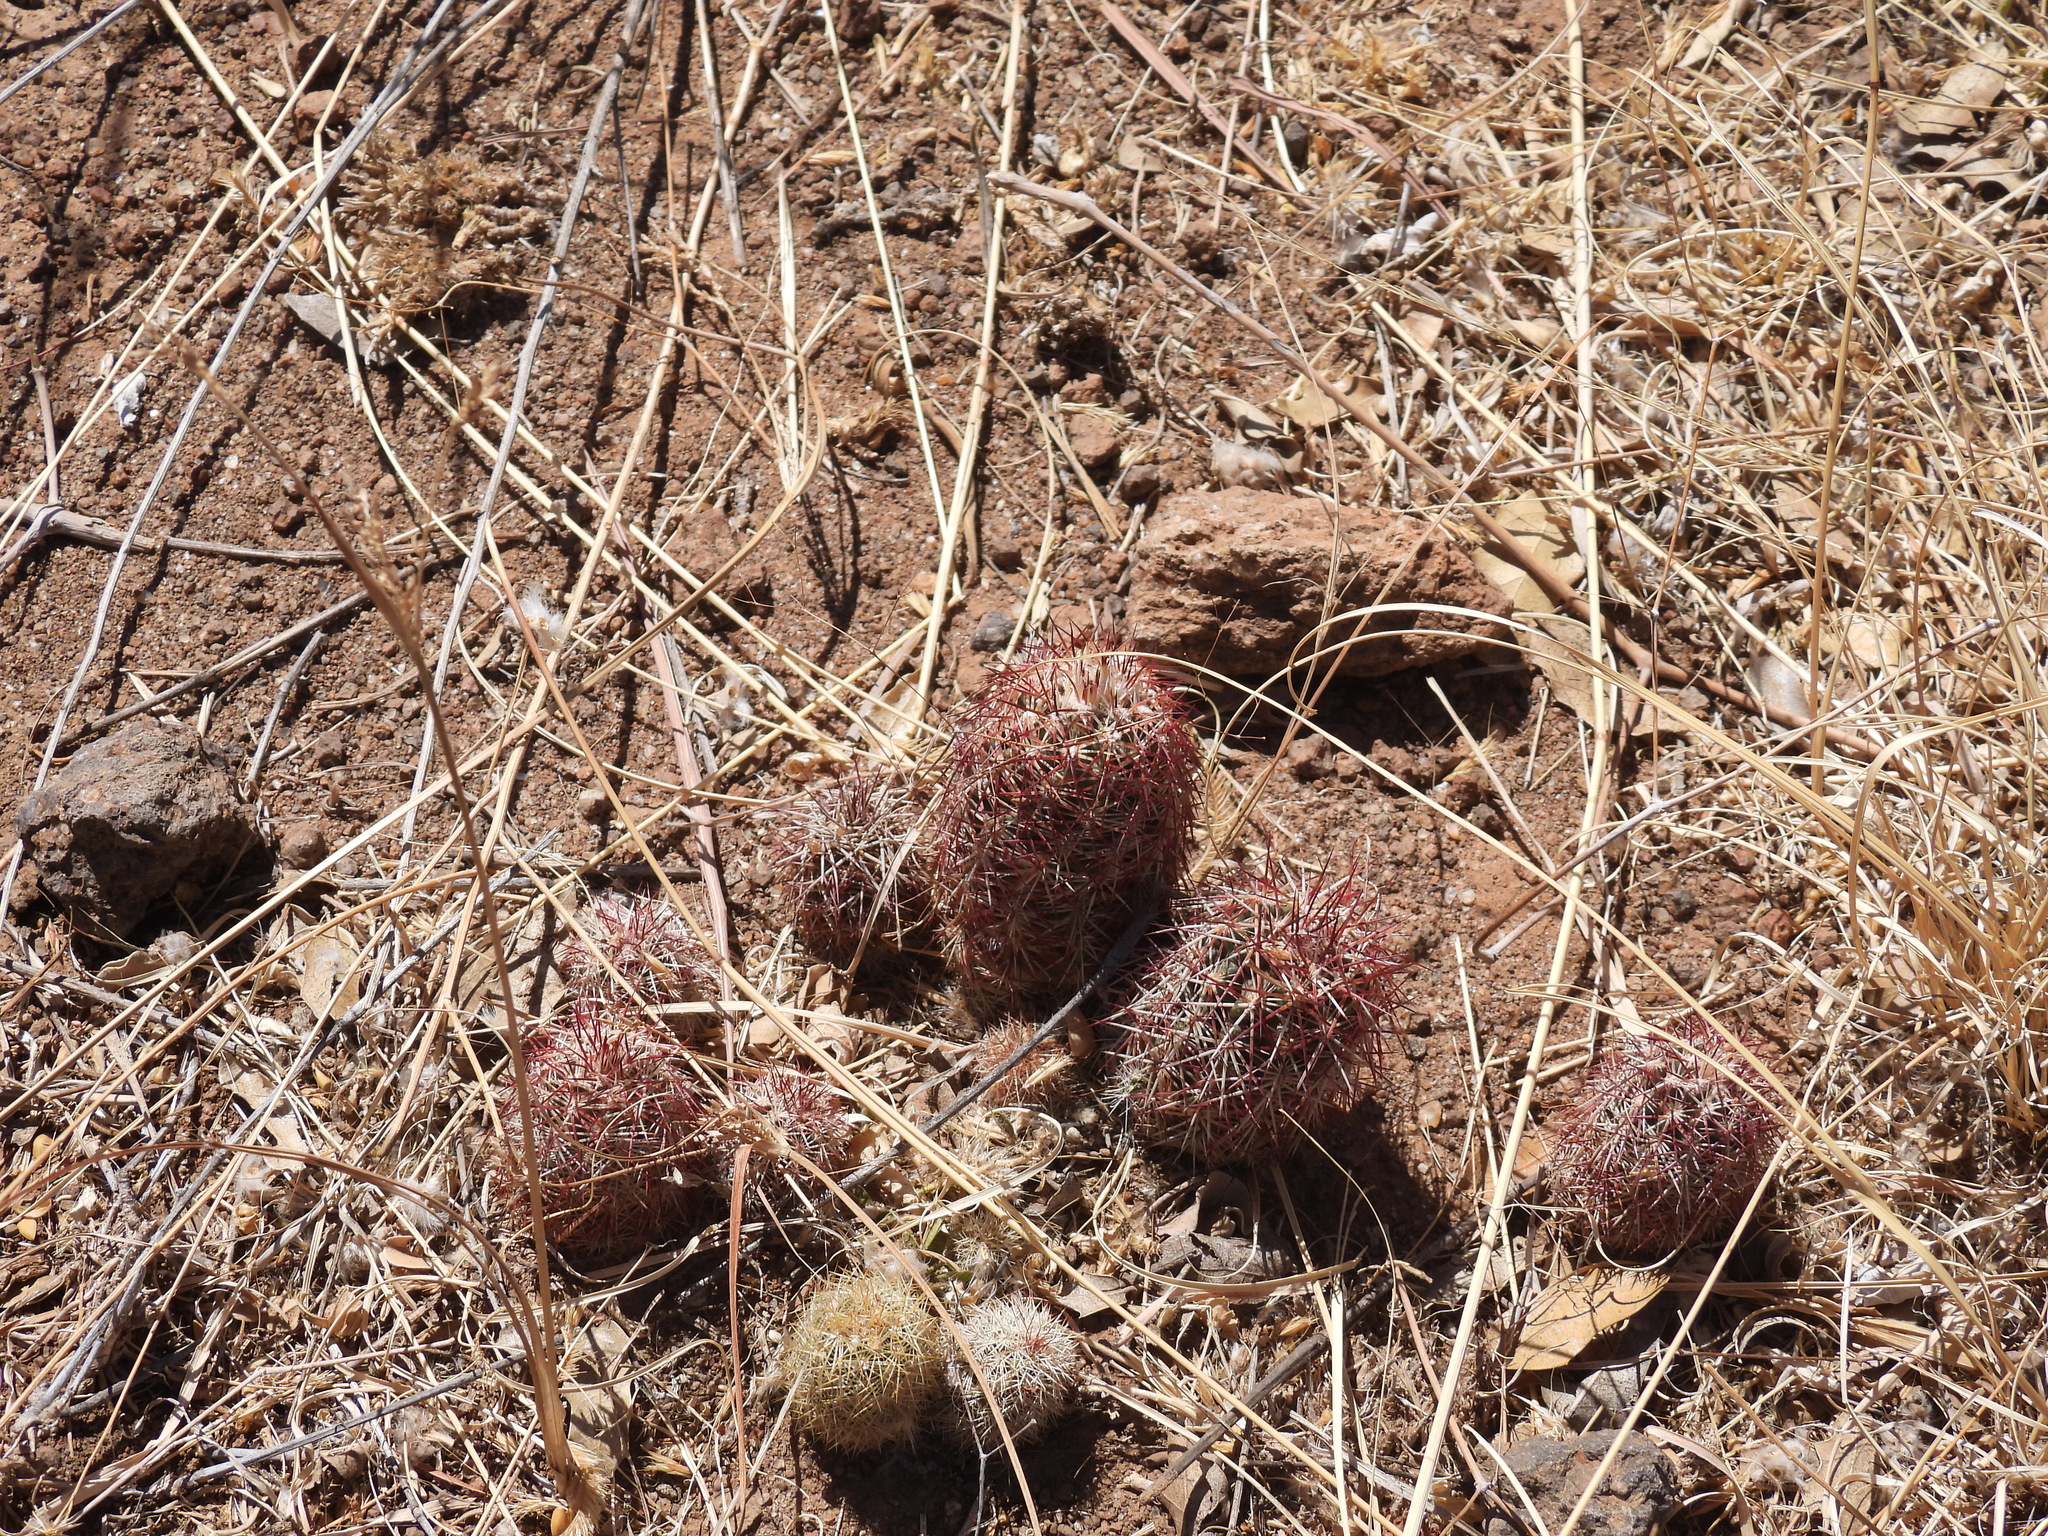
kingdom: Plantae
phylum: Tracheophyta
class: Magnoliopsida
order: Caryophyllales
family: Cactaceae
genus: Echinocereus
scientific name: Echinocereus viridiflorus
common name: Nylon hedgehog cactus
